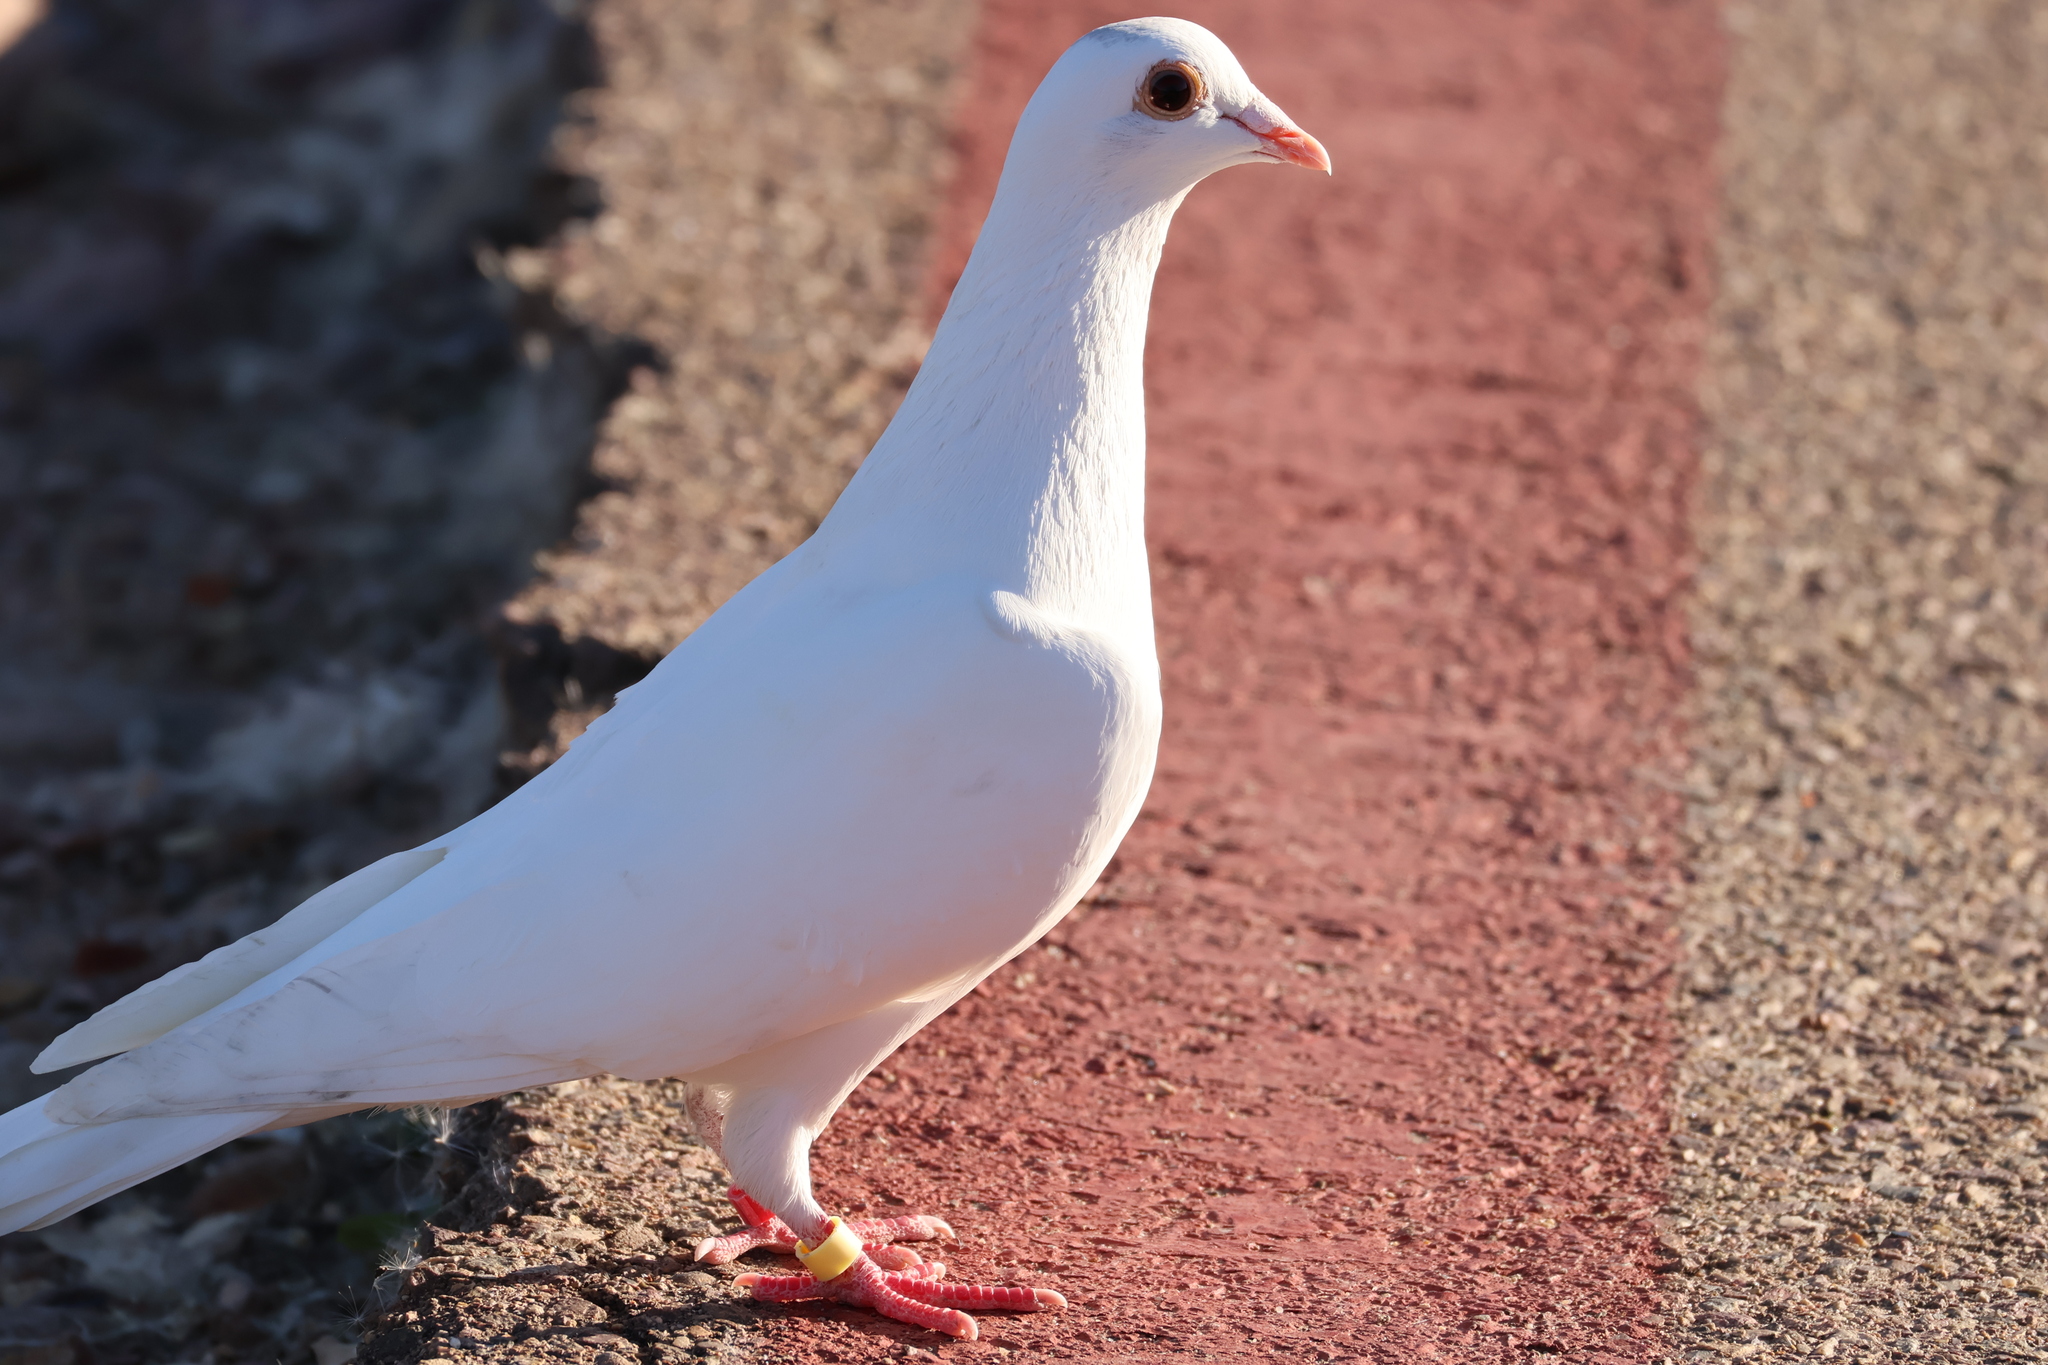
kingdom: Animalia
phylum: Chordata
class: Aves
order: Columbiformes
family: Columbidae
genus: Columba
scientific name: Columba livia
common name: Rock pigeon
